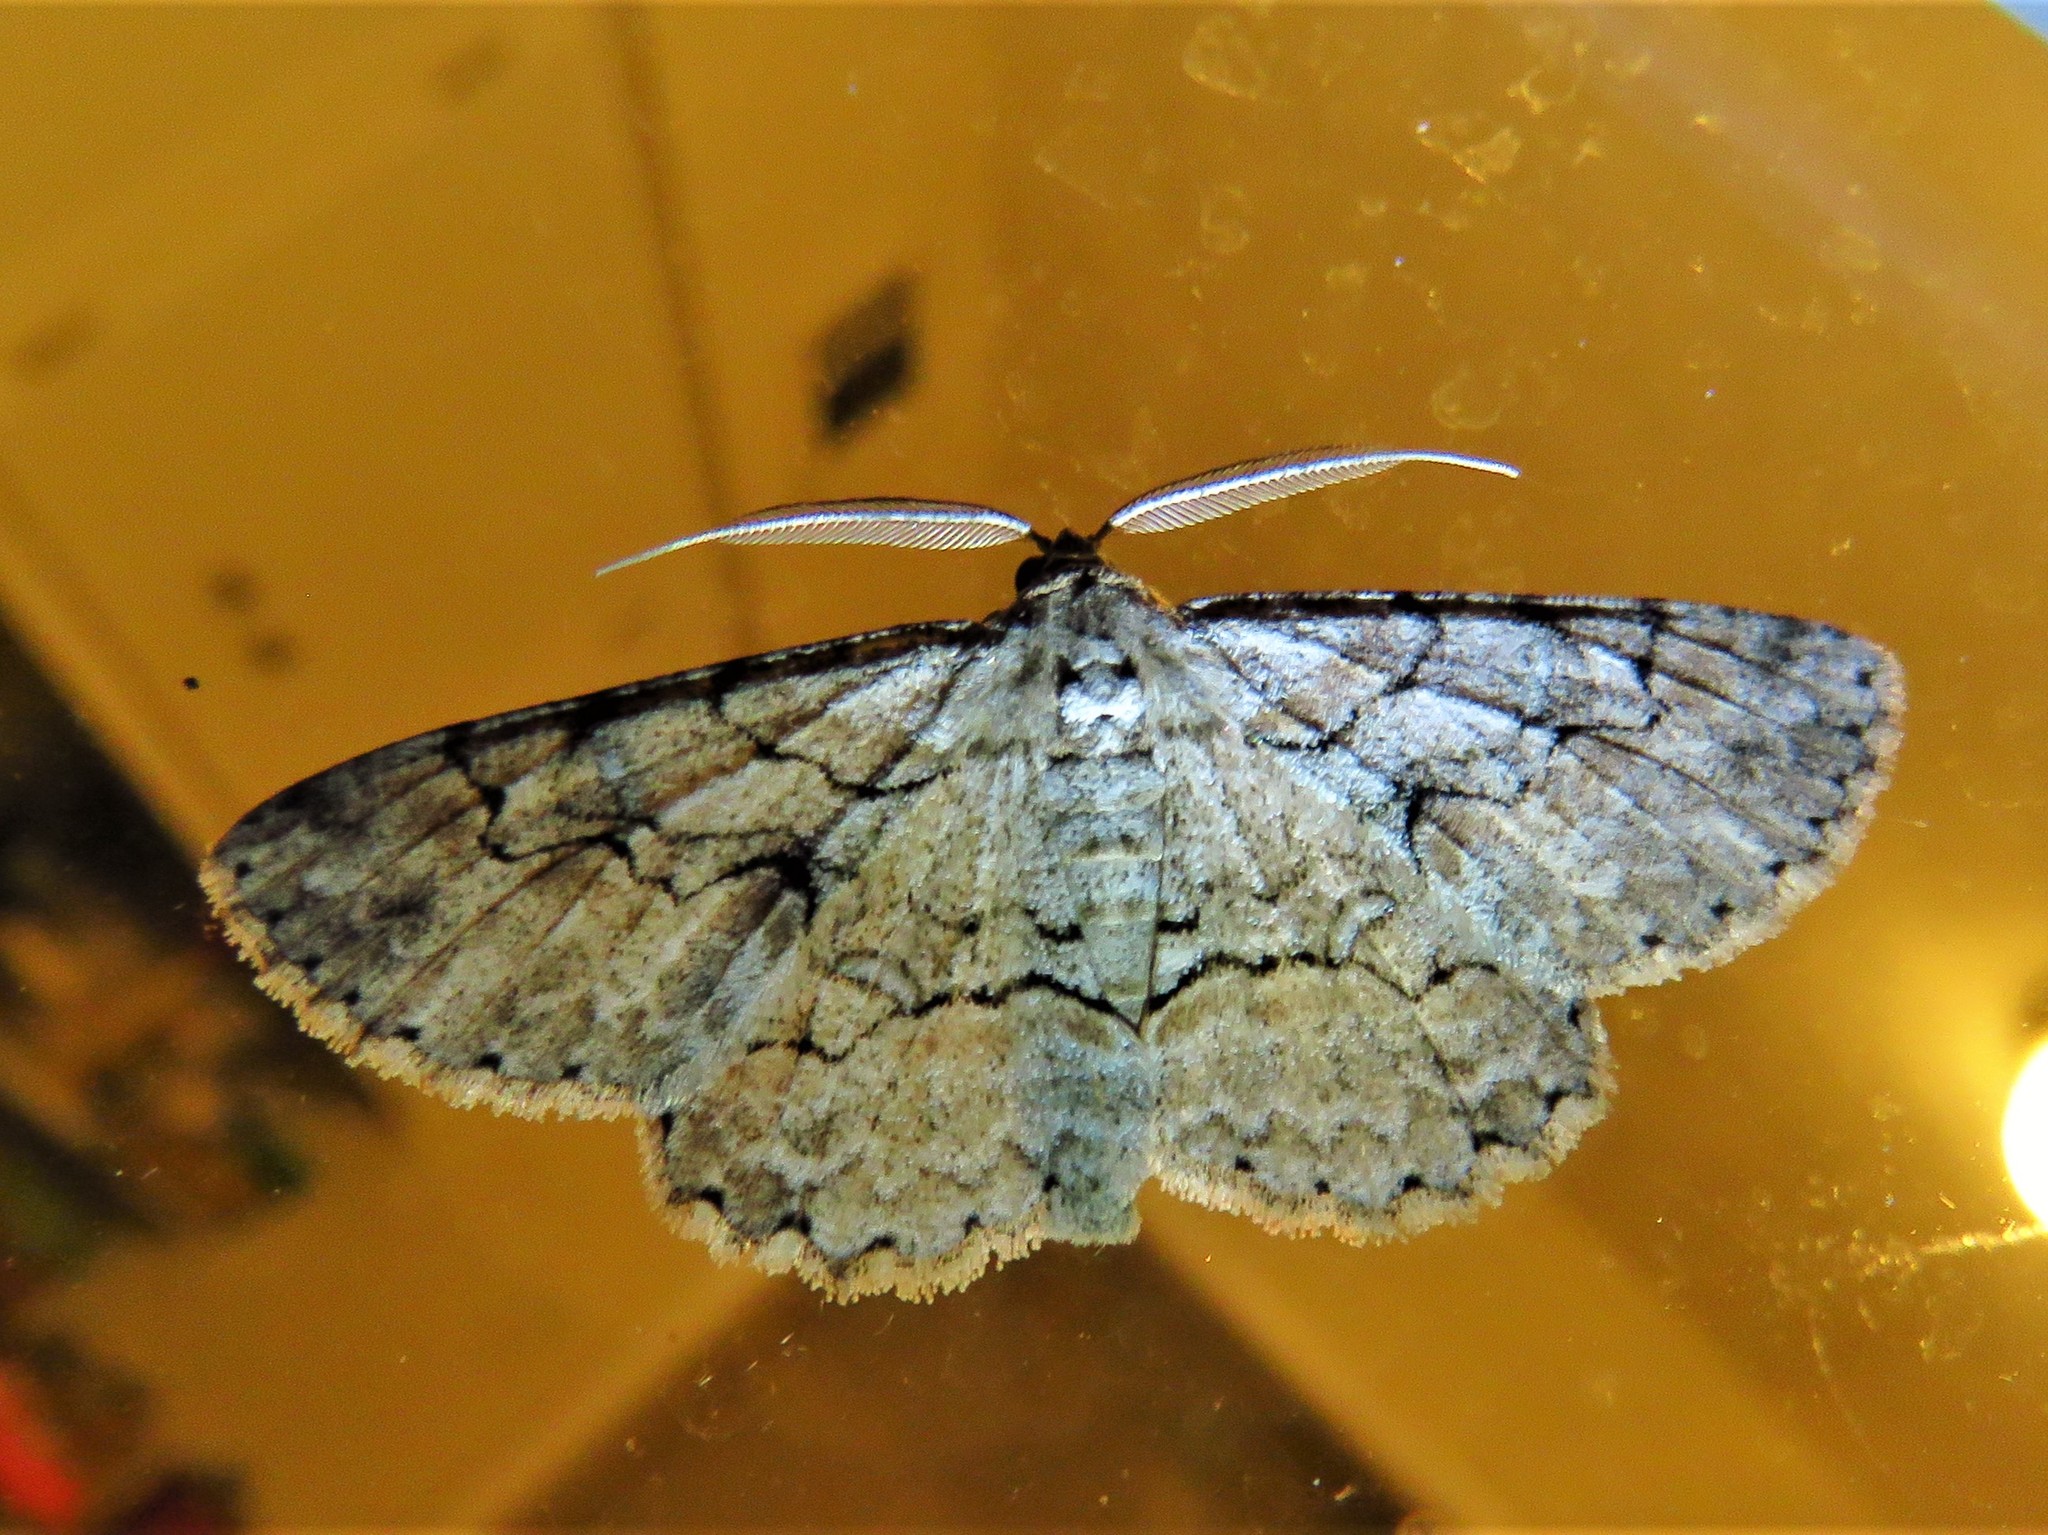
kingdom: Animalia
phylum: Arthropoda
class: Insecta
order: Lepidoptera
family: Geometridae
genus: Iridopsis
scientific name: Iridopsis defectaria
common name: Brown-shaded gray
